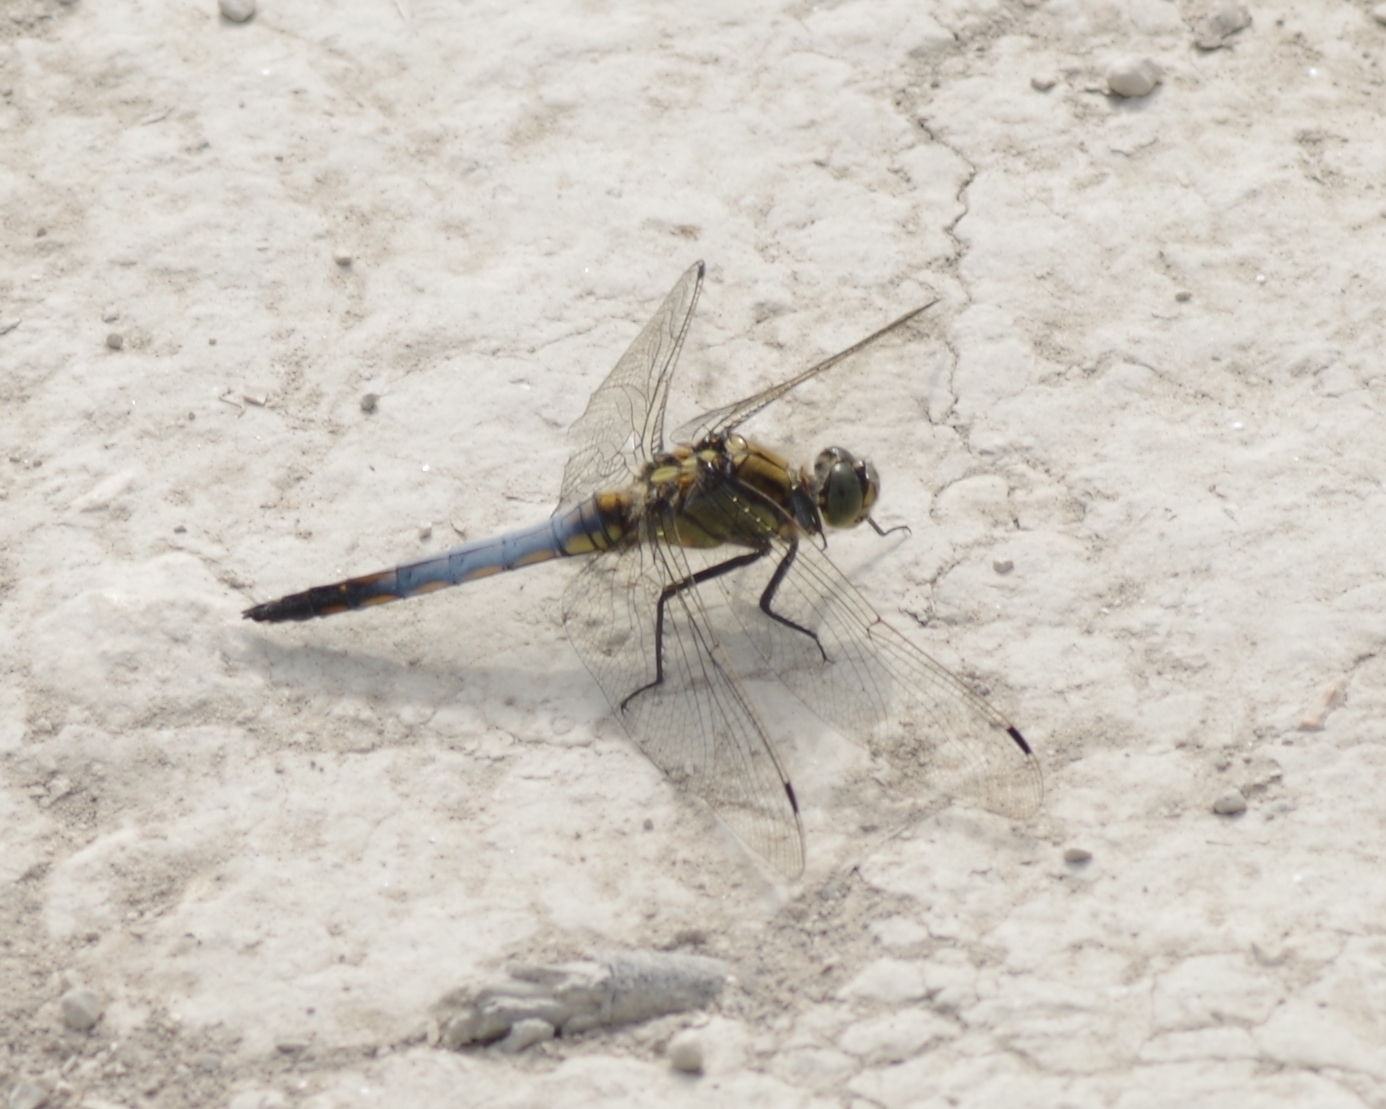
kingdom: Animalia
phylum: Arthropoda
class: Insecta
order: Odonata
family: Libellulidae
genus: Orthetrum
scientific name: Orthetrum cancellatum
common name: Black-tailed skimmer
